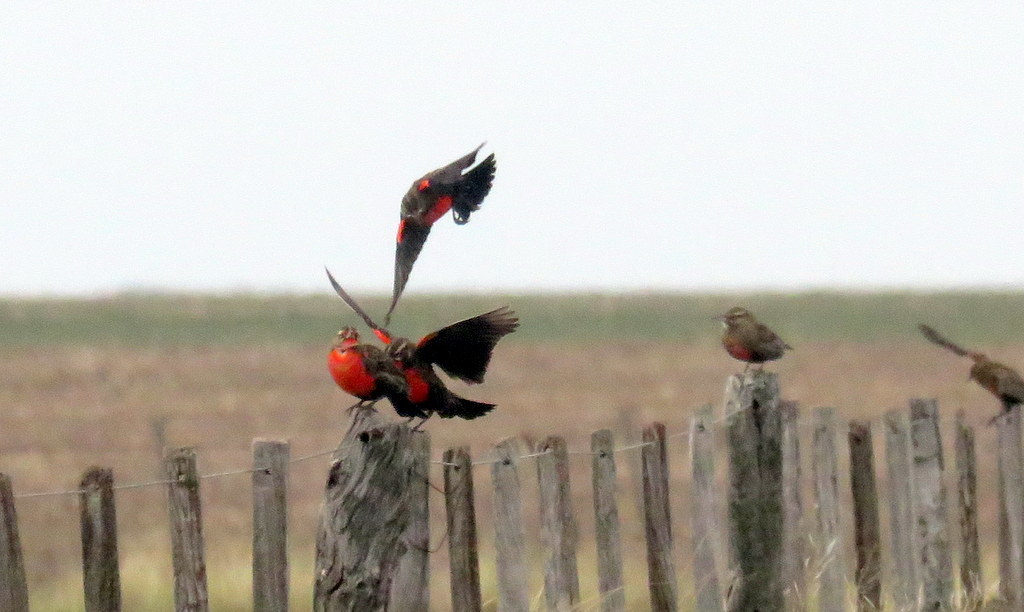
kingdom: Animalia
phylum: Chordata
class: Aves
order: Passeriformes
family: Icteridae
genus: Sturnella
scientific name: Sturnella defilippii
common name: Pampas meadowlark
